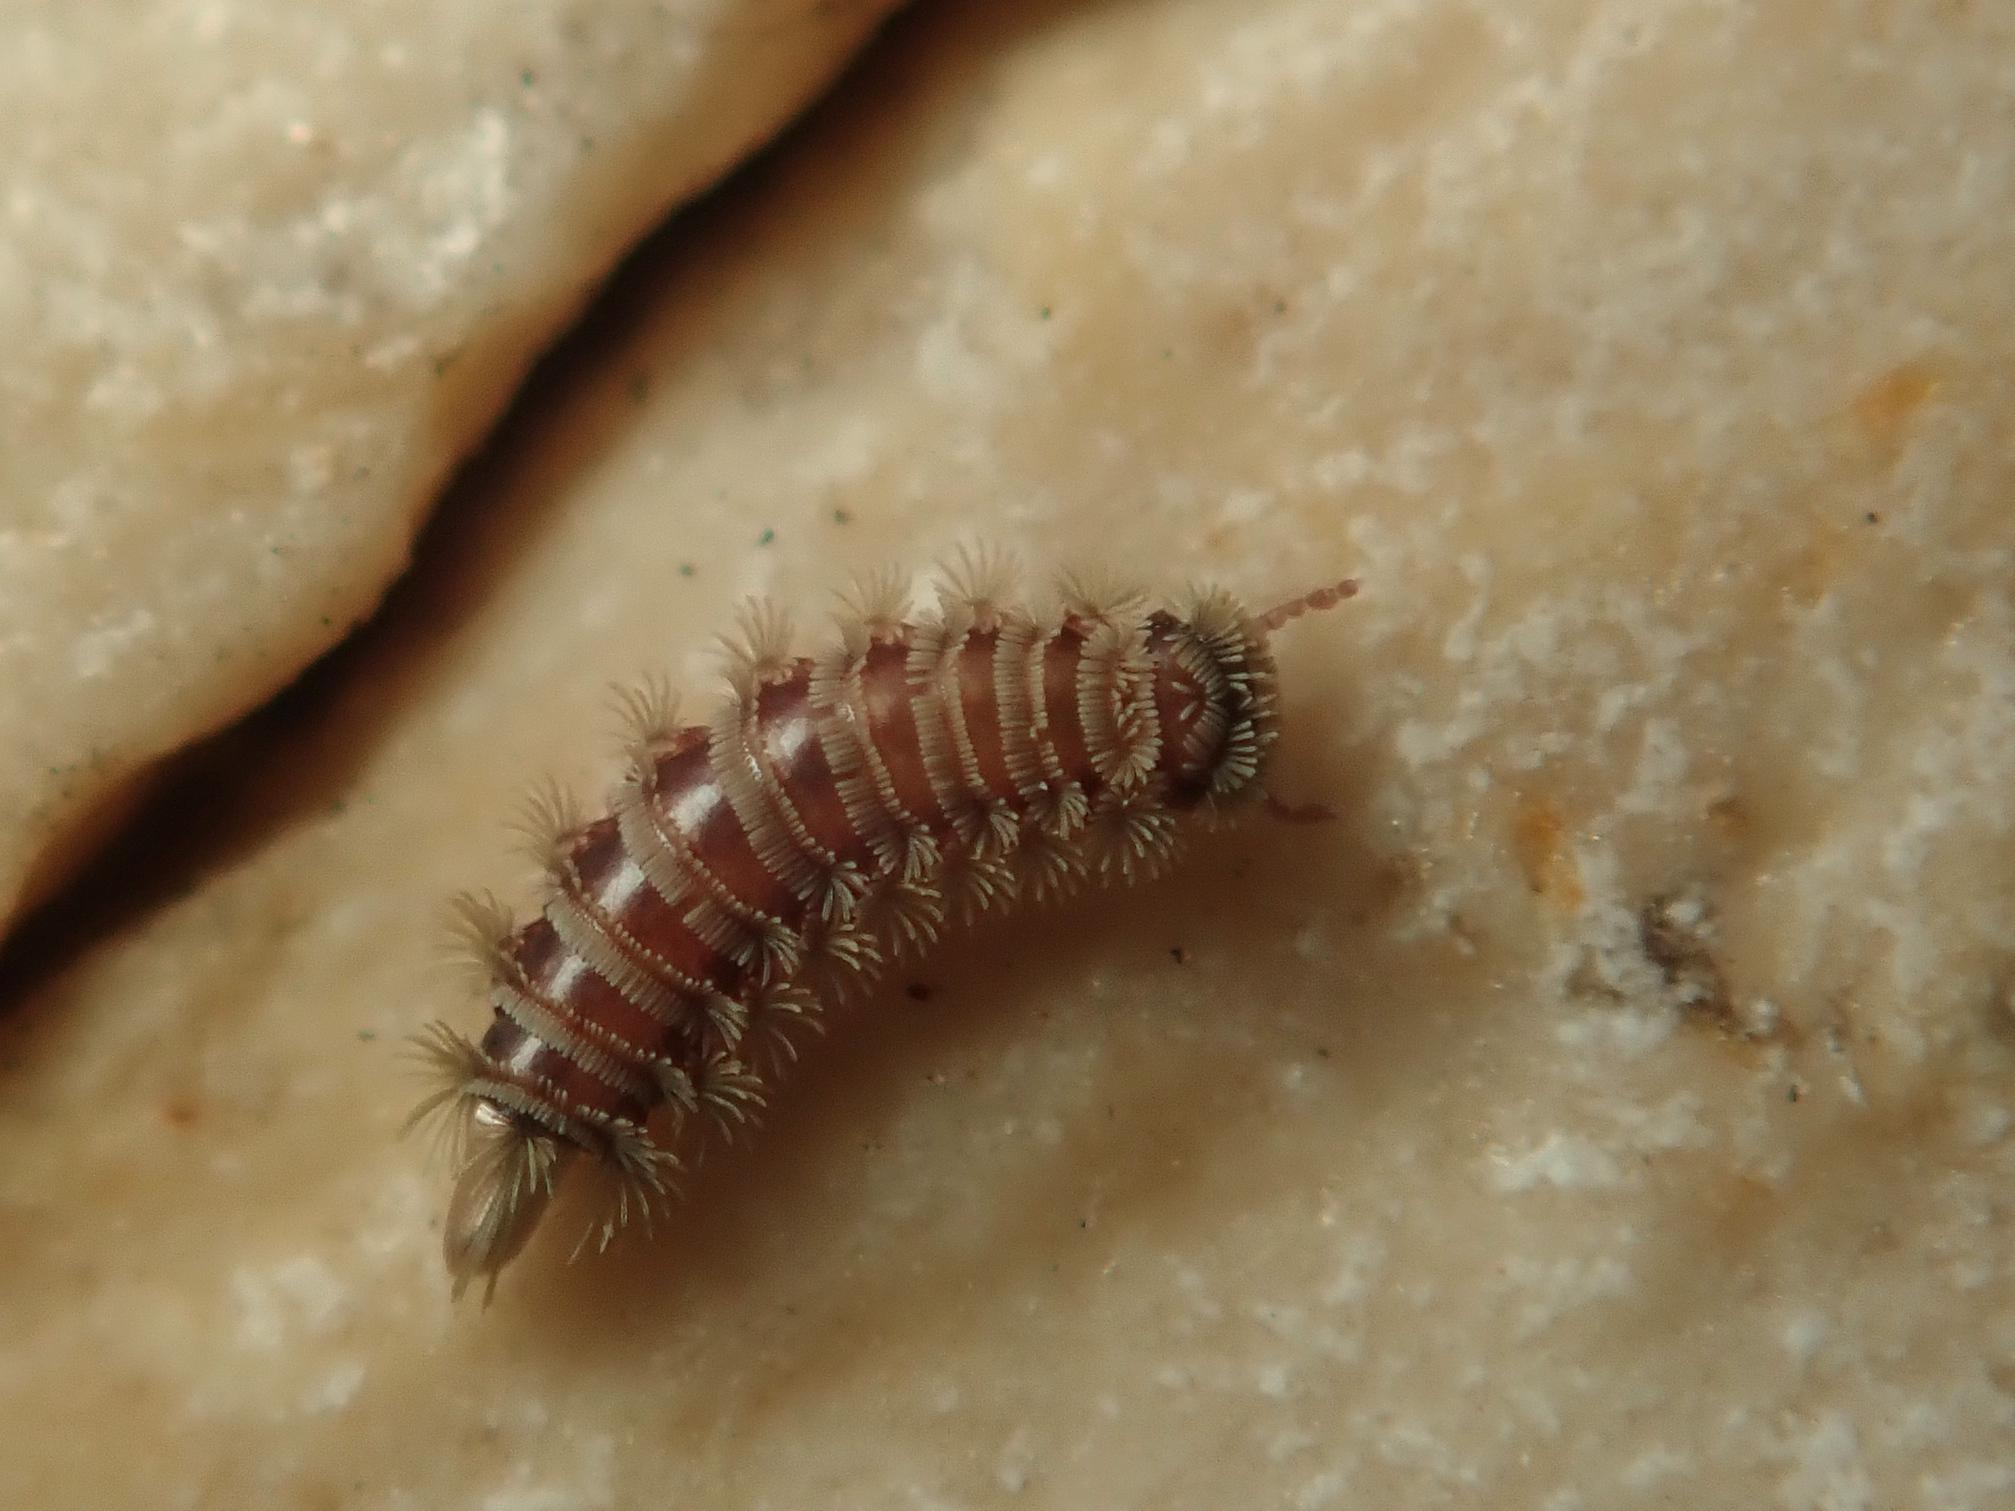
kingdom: Animalia
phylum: Arthropoda
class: Diplopoda
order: Polyxenida
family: Polyxenidae
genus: Polyxenus
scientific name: Polyxenus lagurus
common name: Bristly millipede
